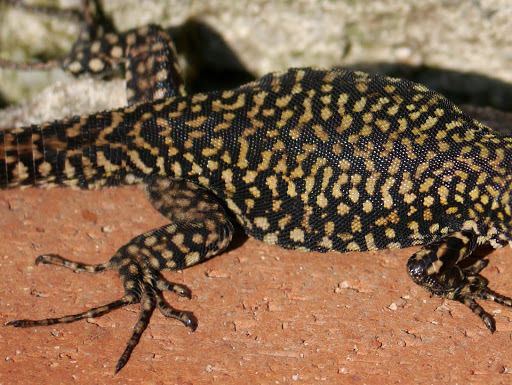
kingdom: Animalia
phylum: Chordata
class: Squamata
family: Lacertidae
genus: Podarcis
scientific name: Podarcis muralis
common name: Common wall lizard
